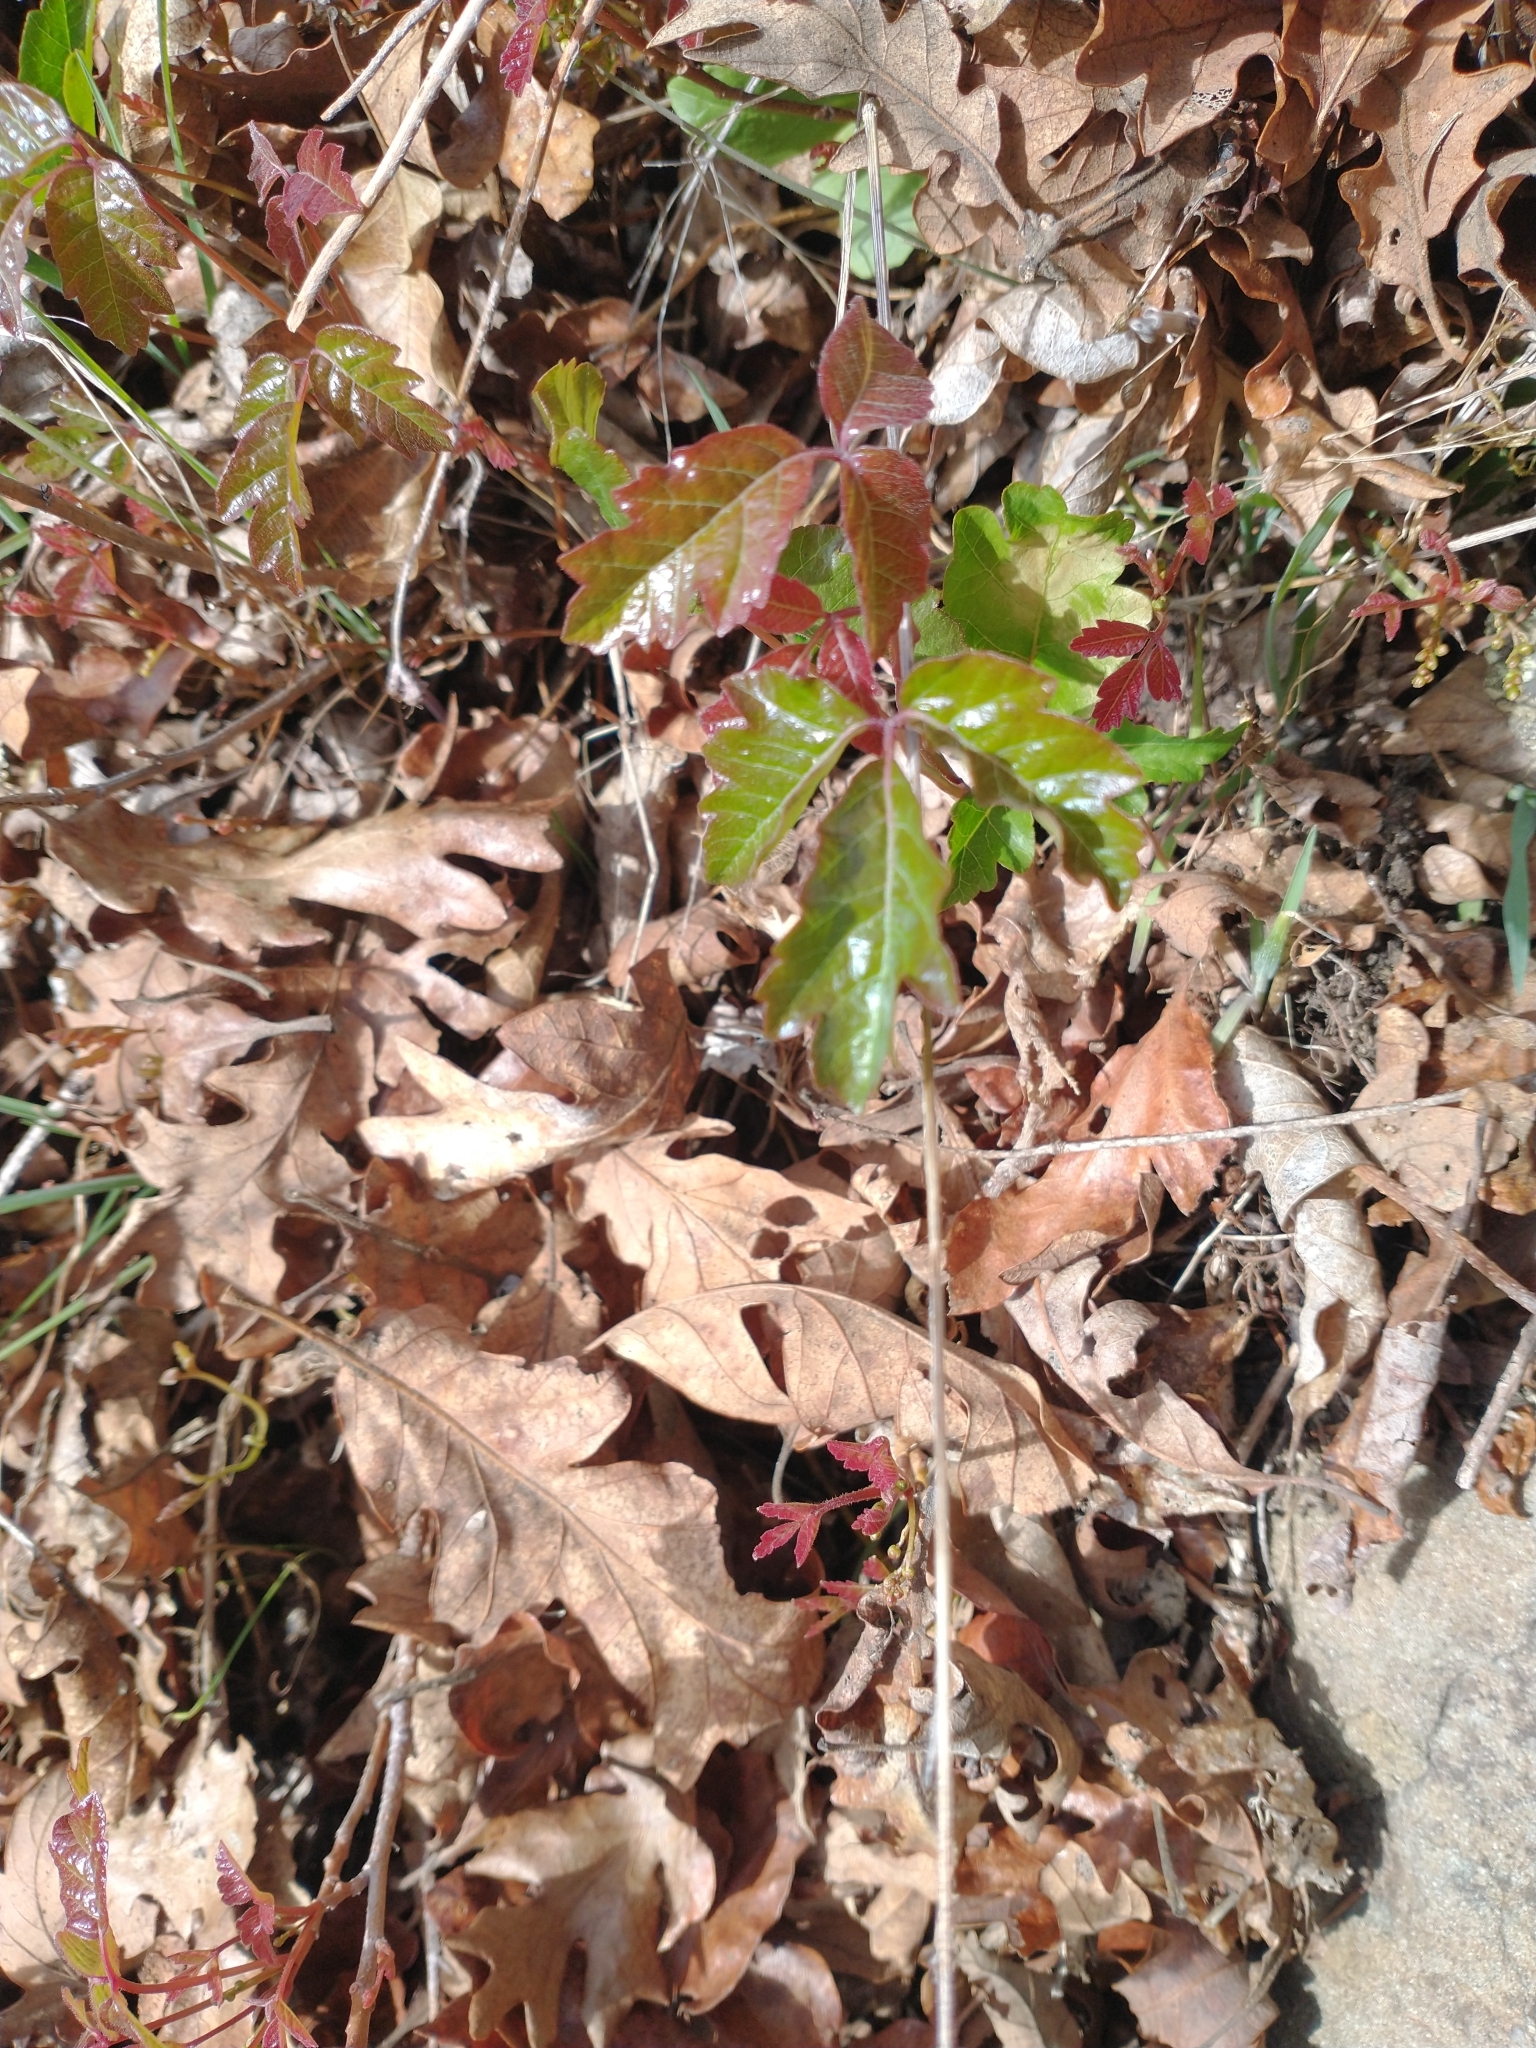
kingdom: Plantae
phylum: Tracheophyta
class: Magnoliopsida
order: Sapindales
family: Anacardiaceae
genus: Toxicodendron
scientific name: Toxicodendron diversilobum
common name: Pacific poison-oak
